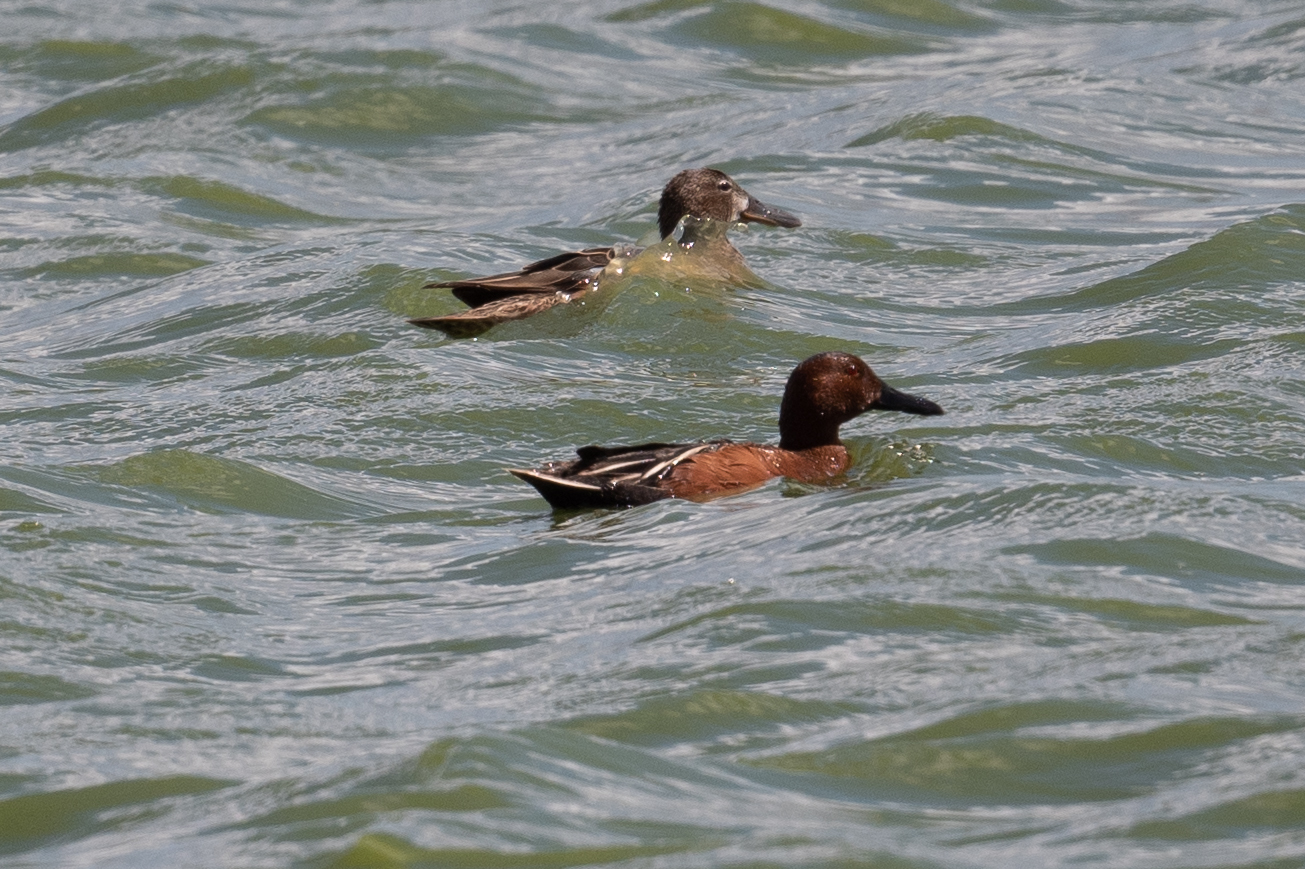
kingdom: Animalia
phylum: Chordata
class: Aves
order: Anseriformes
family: Anatidae
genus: Spatula
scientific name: Spatula cyanoptera
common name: Cinnamon teal
